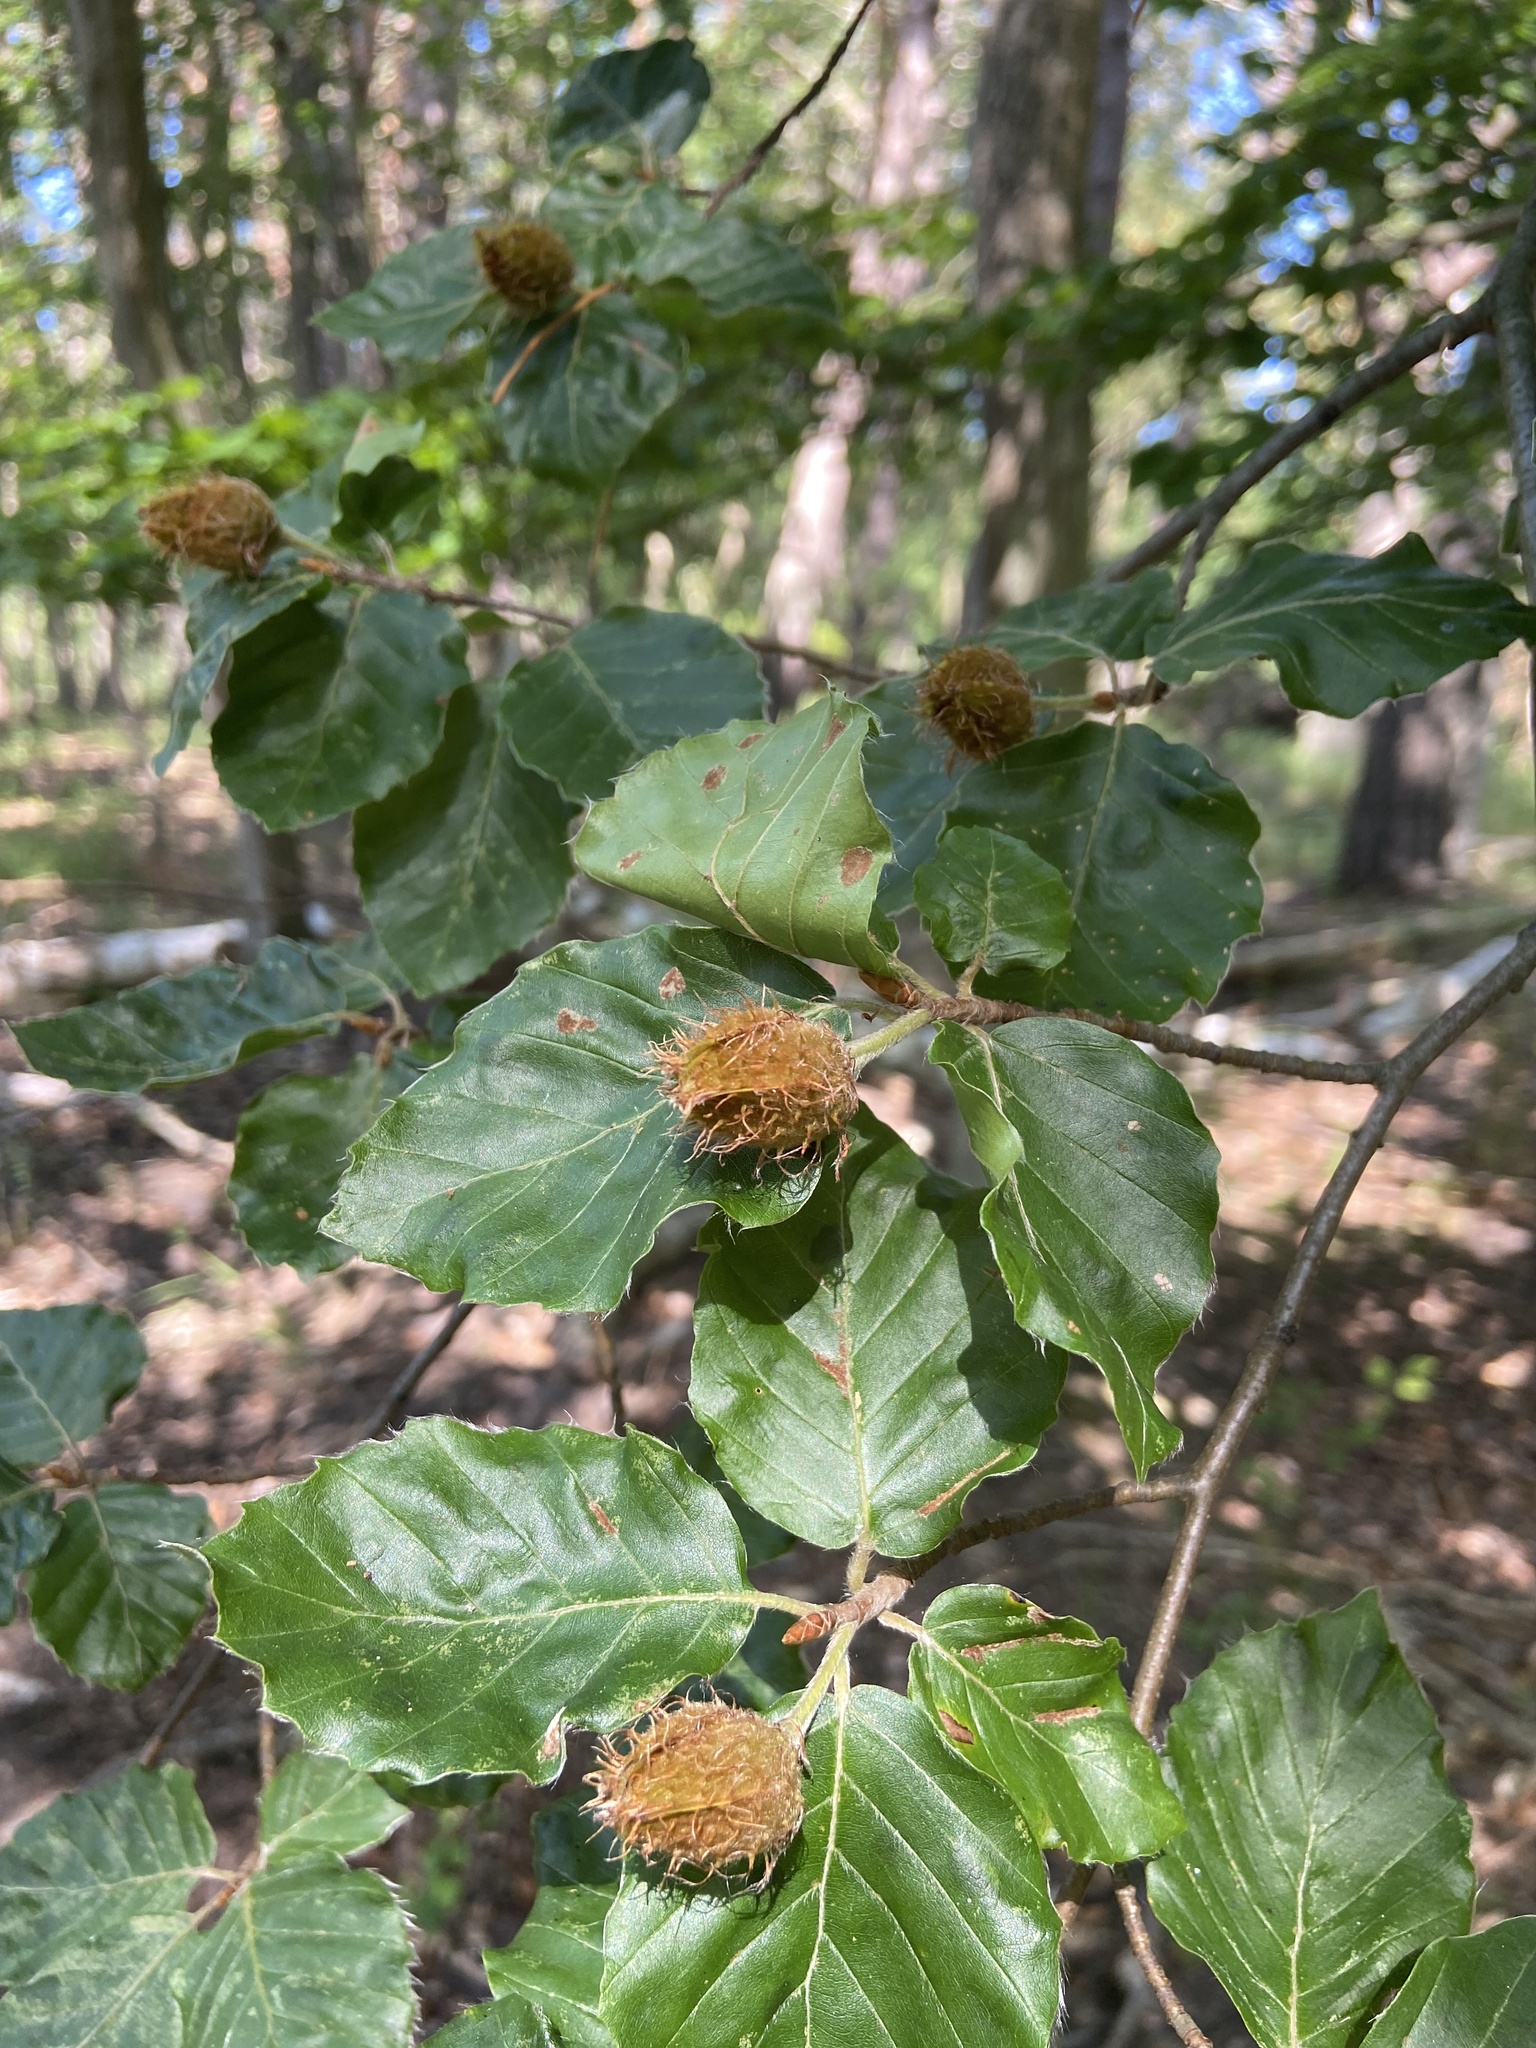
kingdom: Plantae
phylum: Tracheophyta
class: Magnoliopsida
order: Fagales
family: Fagaceae
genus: Fagus
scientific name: Fagus sylvatica
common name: Beech
